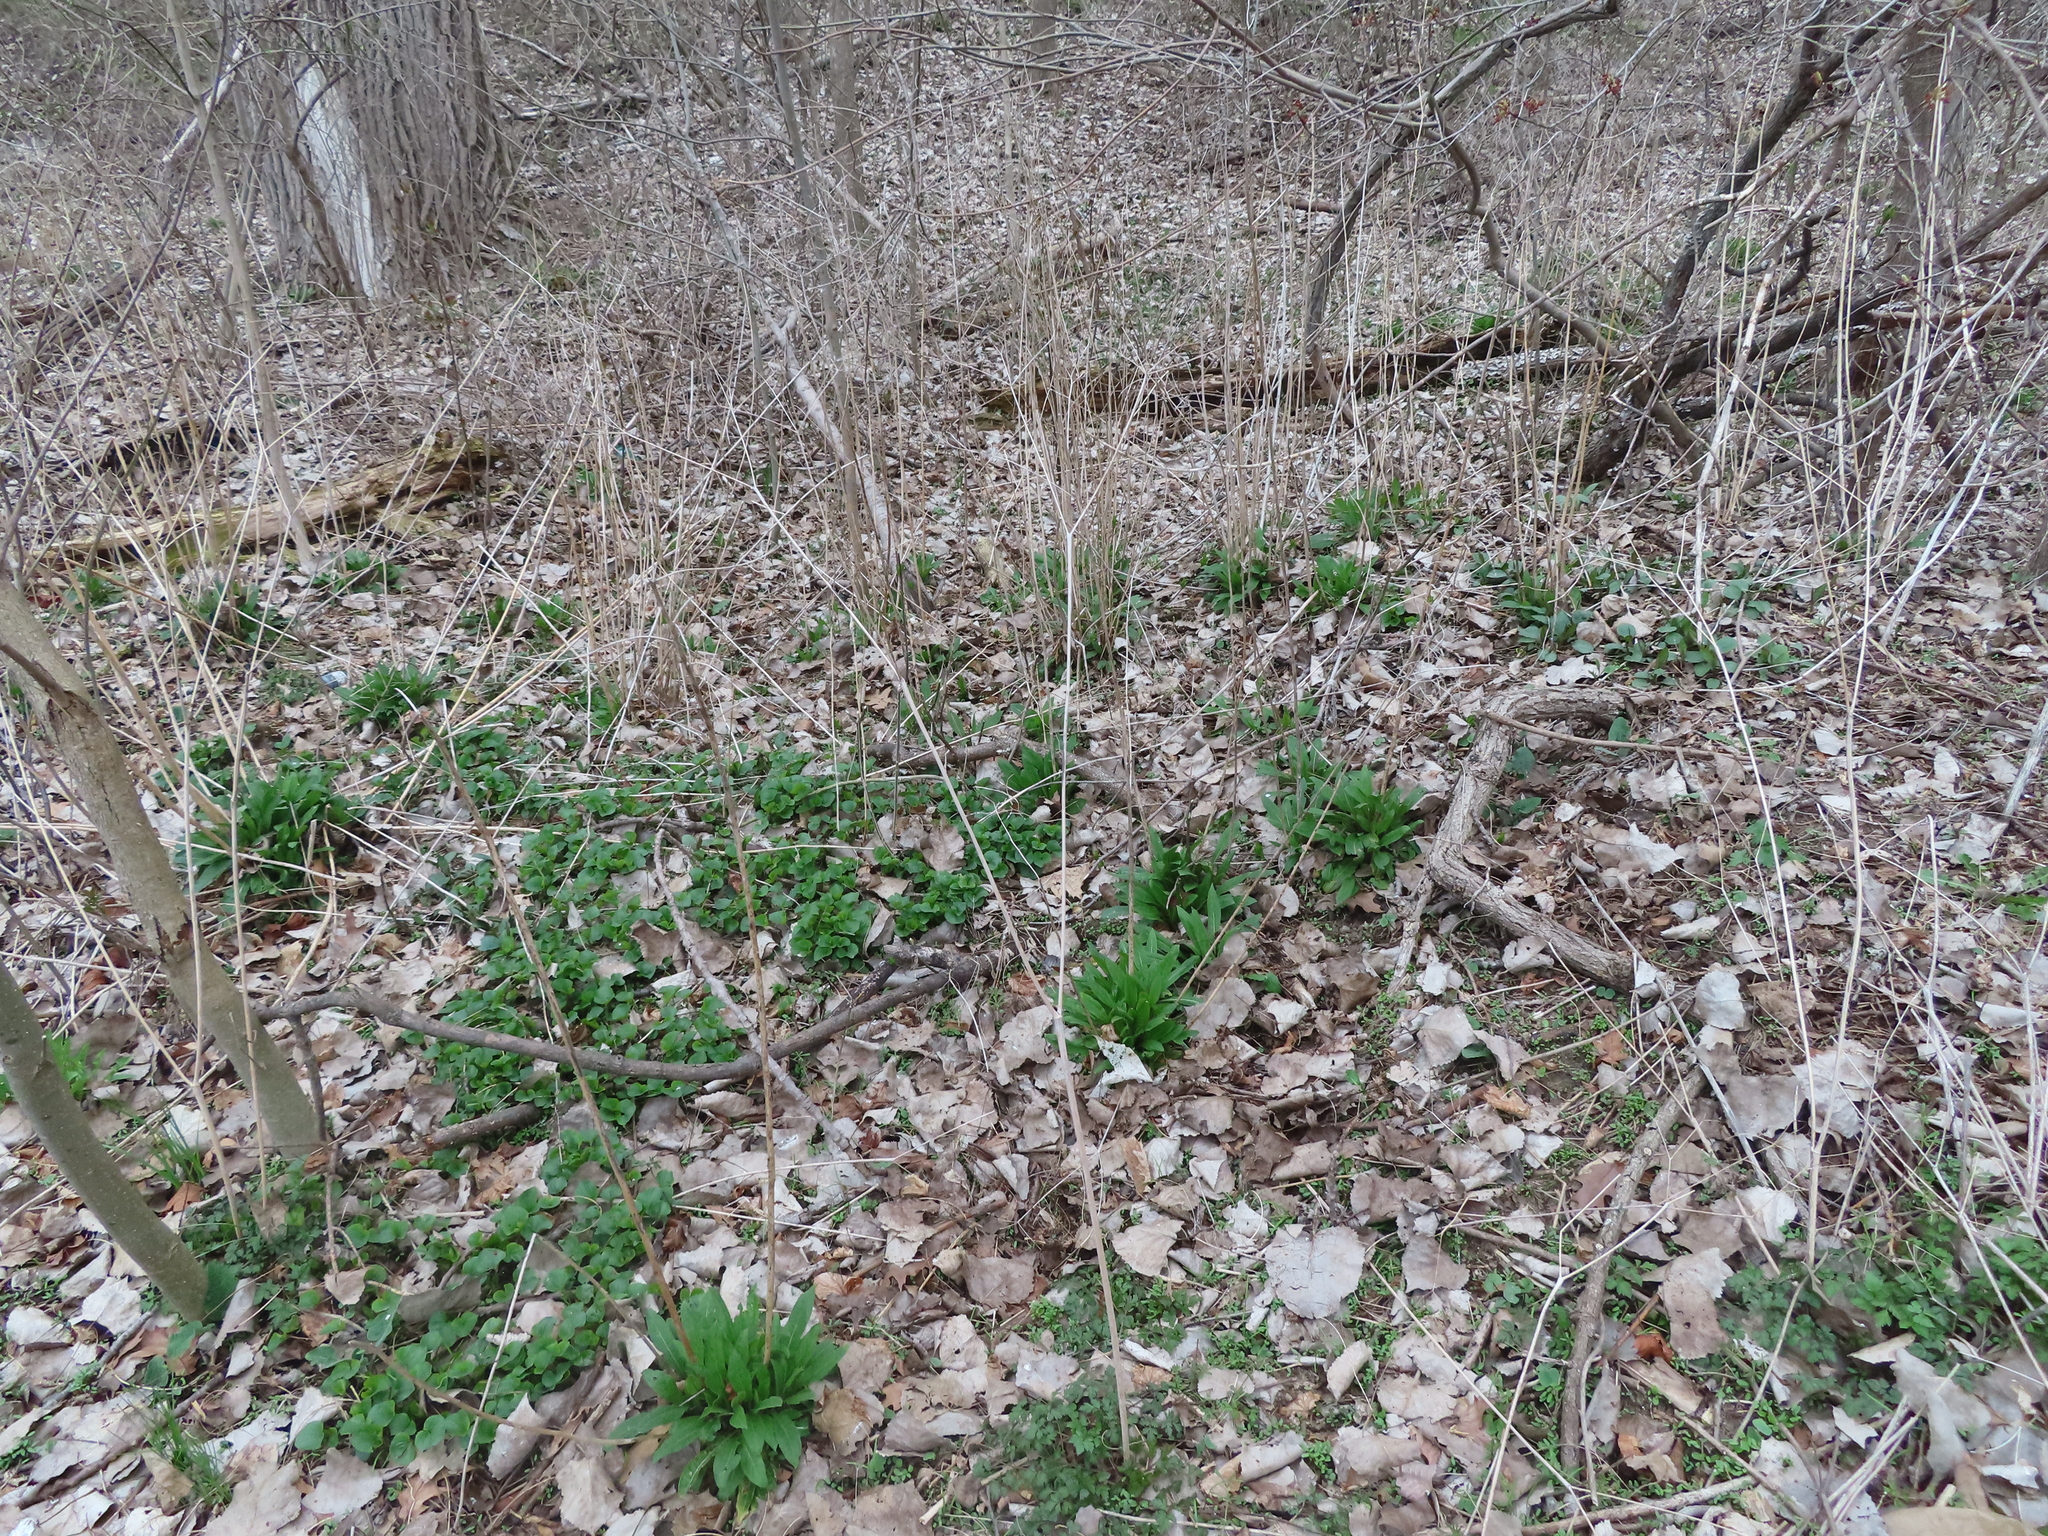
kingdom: Plantae
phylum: Tracheophyta
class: Magnoliopsida
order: Brassicales
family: Brassicaceae
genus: Hesperis
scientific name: Hesperis matronalis
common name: Dame's-violet
